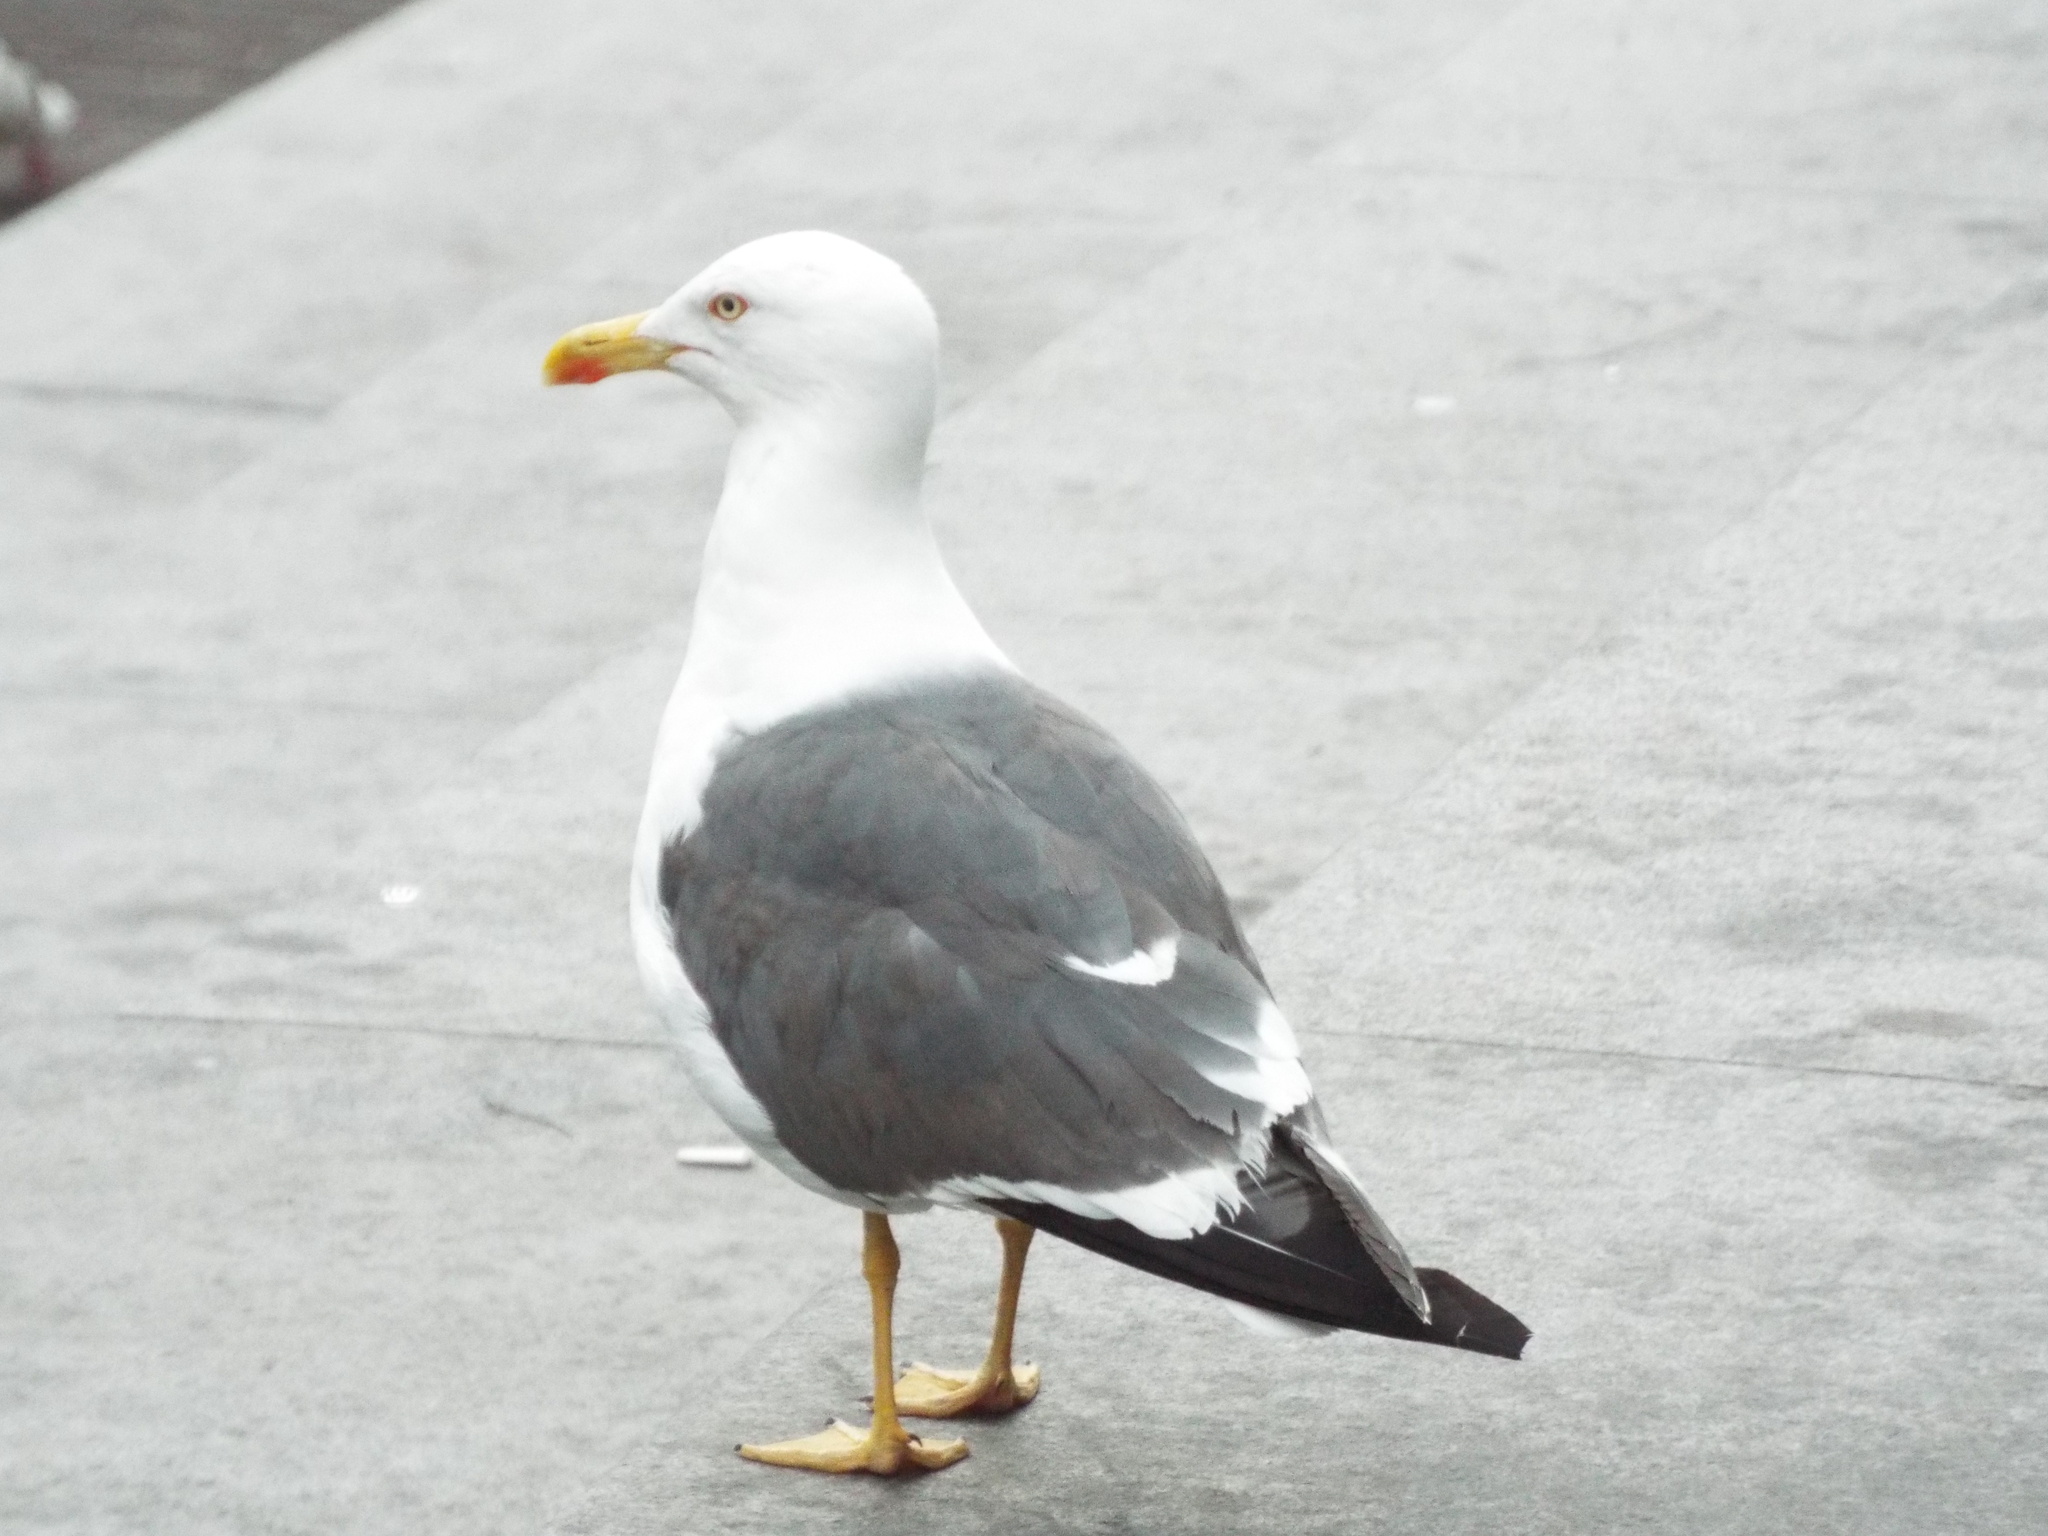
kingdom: Animalia
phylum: Chordata
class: Aves
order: Charadriiformes
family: Laridae
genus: Larus
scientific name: Larus fuscus
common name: Lesser black-backed gull
